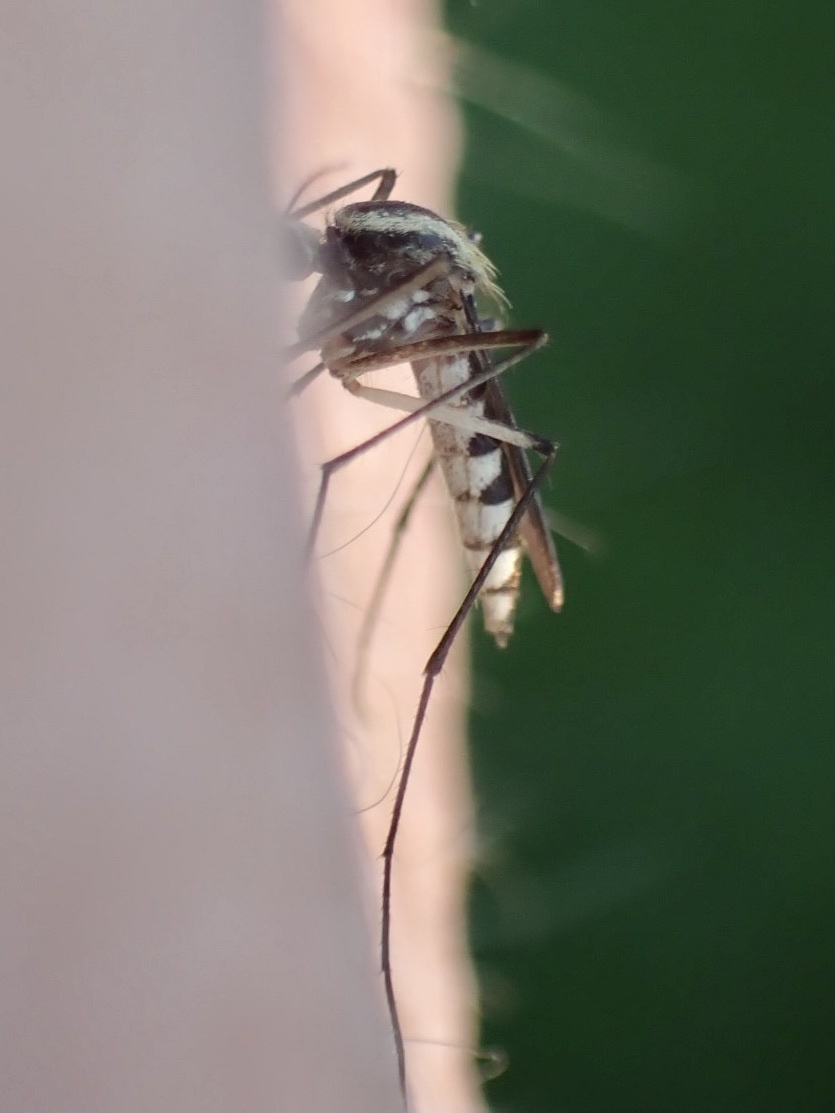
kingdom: Animalia
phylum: Arthropoda
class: Insecta
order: Diptera
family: Culicidae
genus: Aedes
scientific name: Aedes trivittatus
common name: Plains floodwater mosquito
